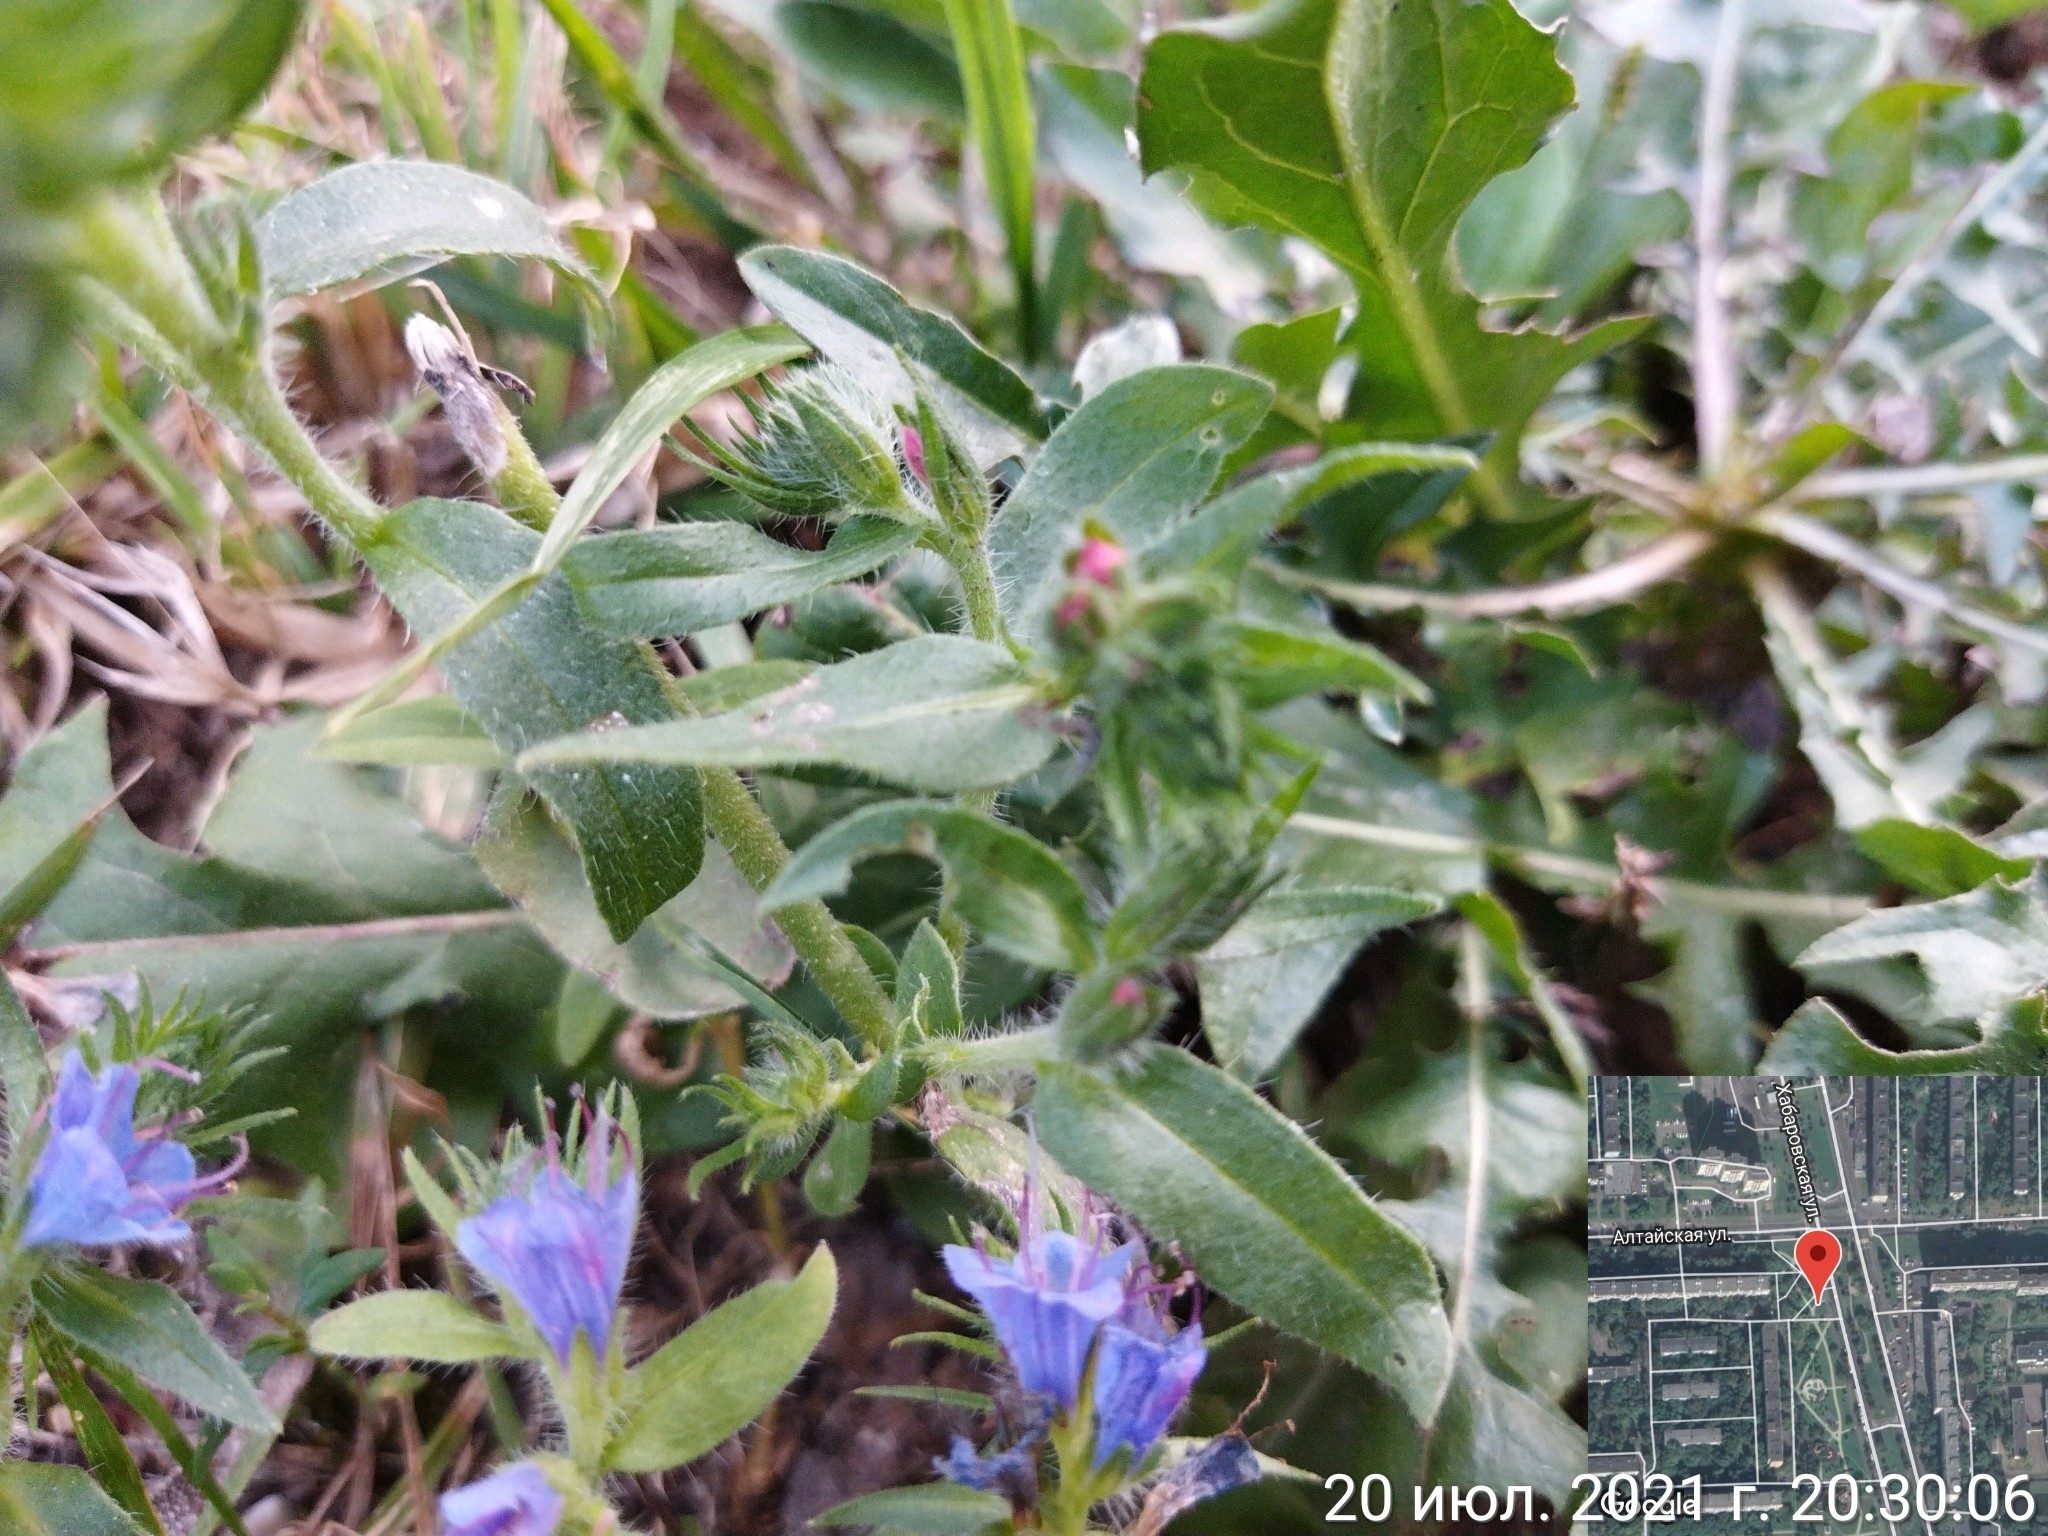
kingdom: Plantae
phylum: Tracheophyta
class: Magnoliopsida
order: Boraginales
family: Boraginaceae
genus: Echium
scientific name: Echium vulgare
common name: Common viper's bugloss
